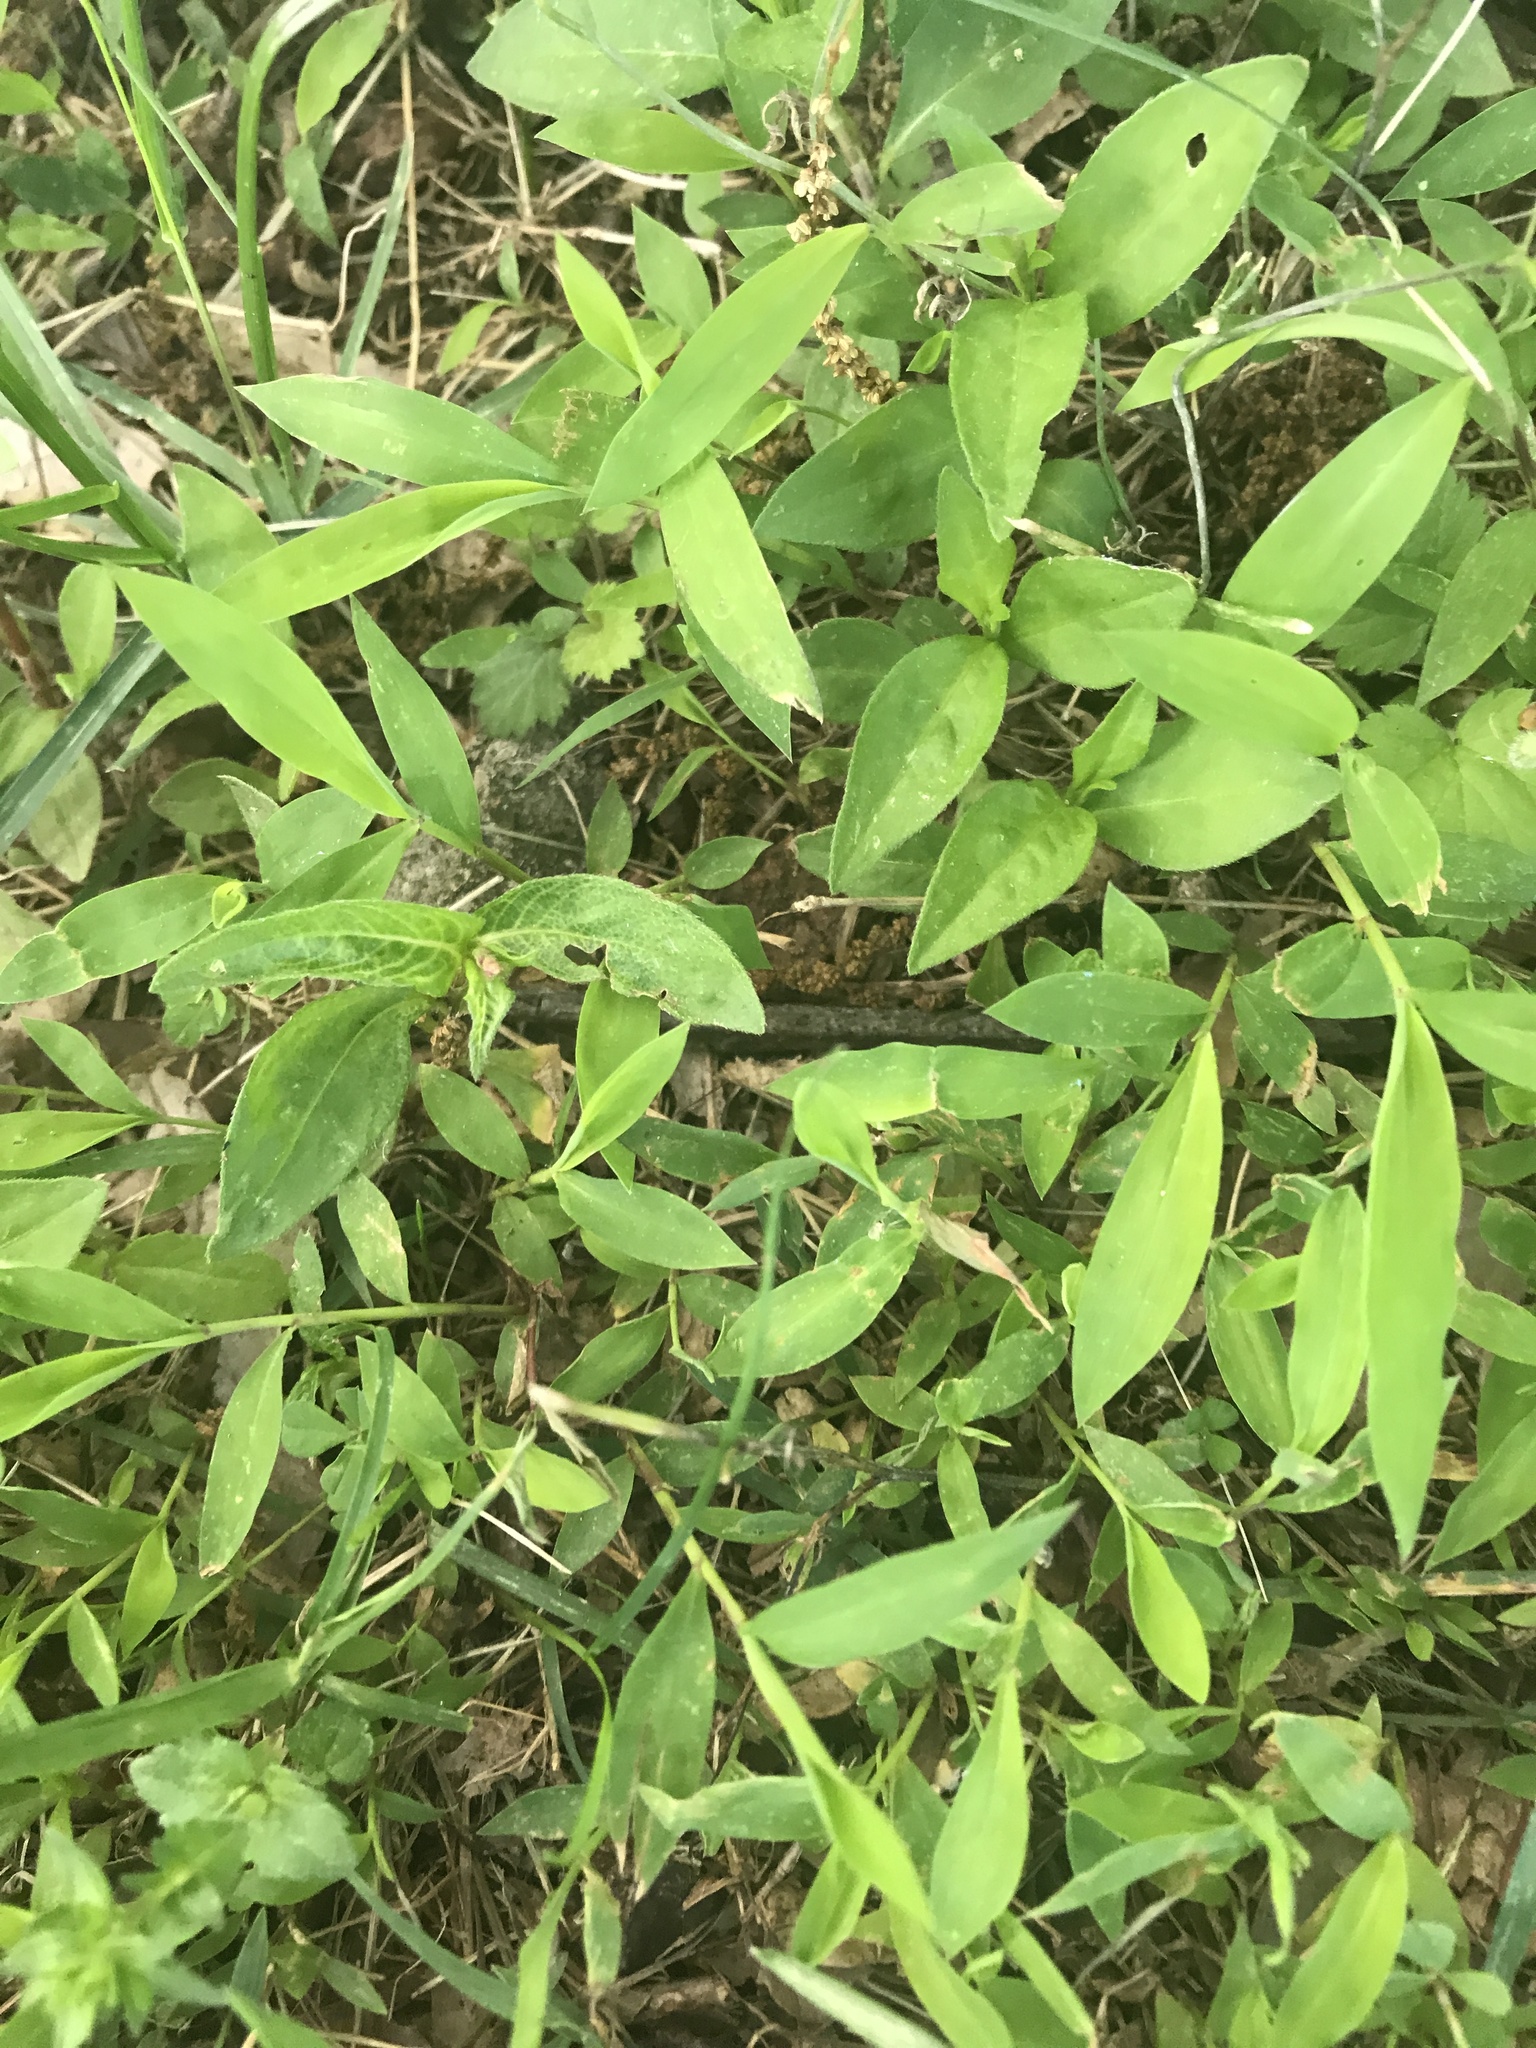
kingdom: Plantae
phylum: Tracheophyta
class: Liliopsida
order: Poales
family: Poaceae
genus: Microstegium
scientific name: Microstegium vimineum
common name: Japanese stiltgrass
